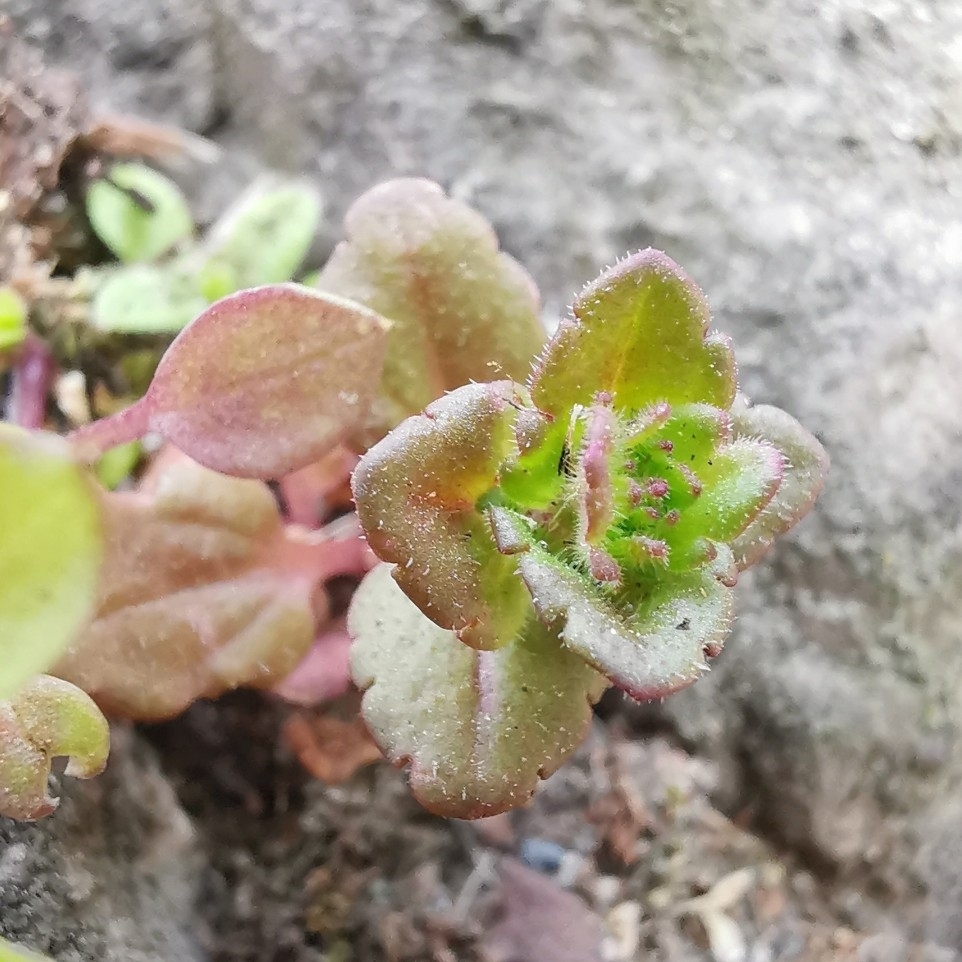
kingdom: Plantae
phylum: Tracheophyta
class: Magnoliopsida
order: Lamiales
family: Plantaginaceae
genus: Veronica
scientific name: Veronica arvensis
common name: Corn speedwell
